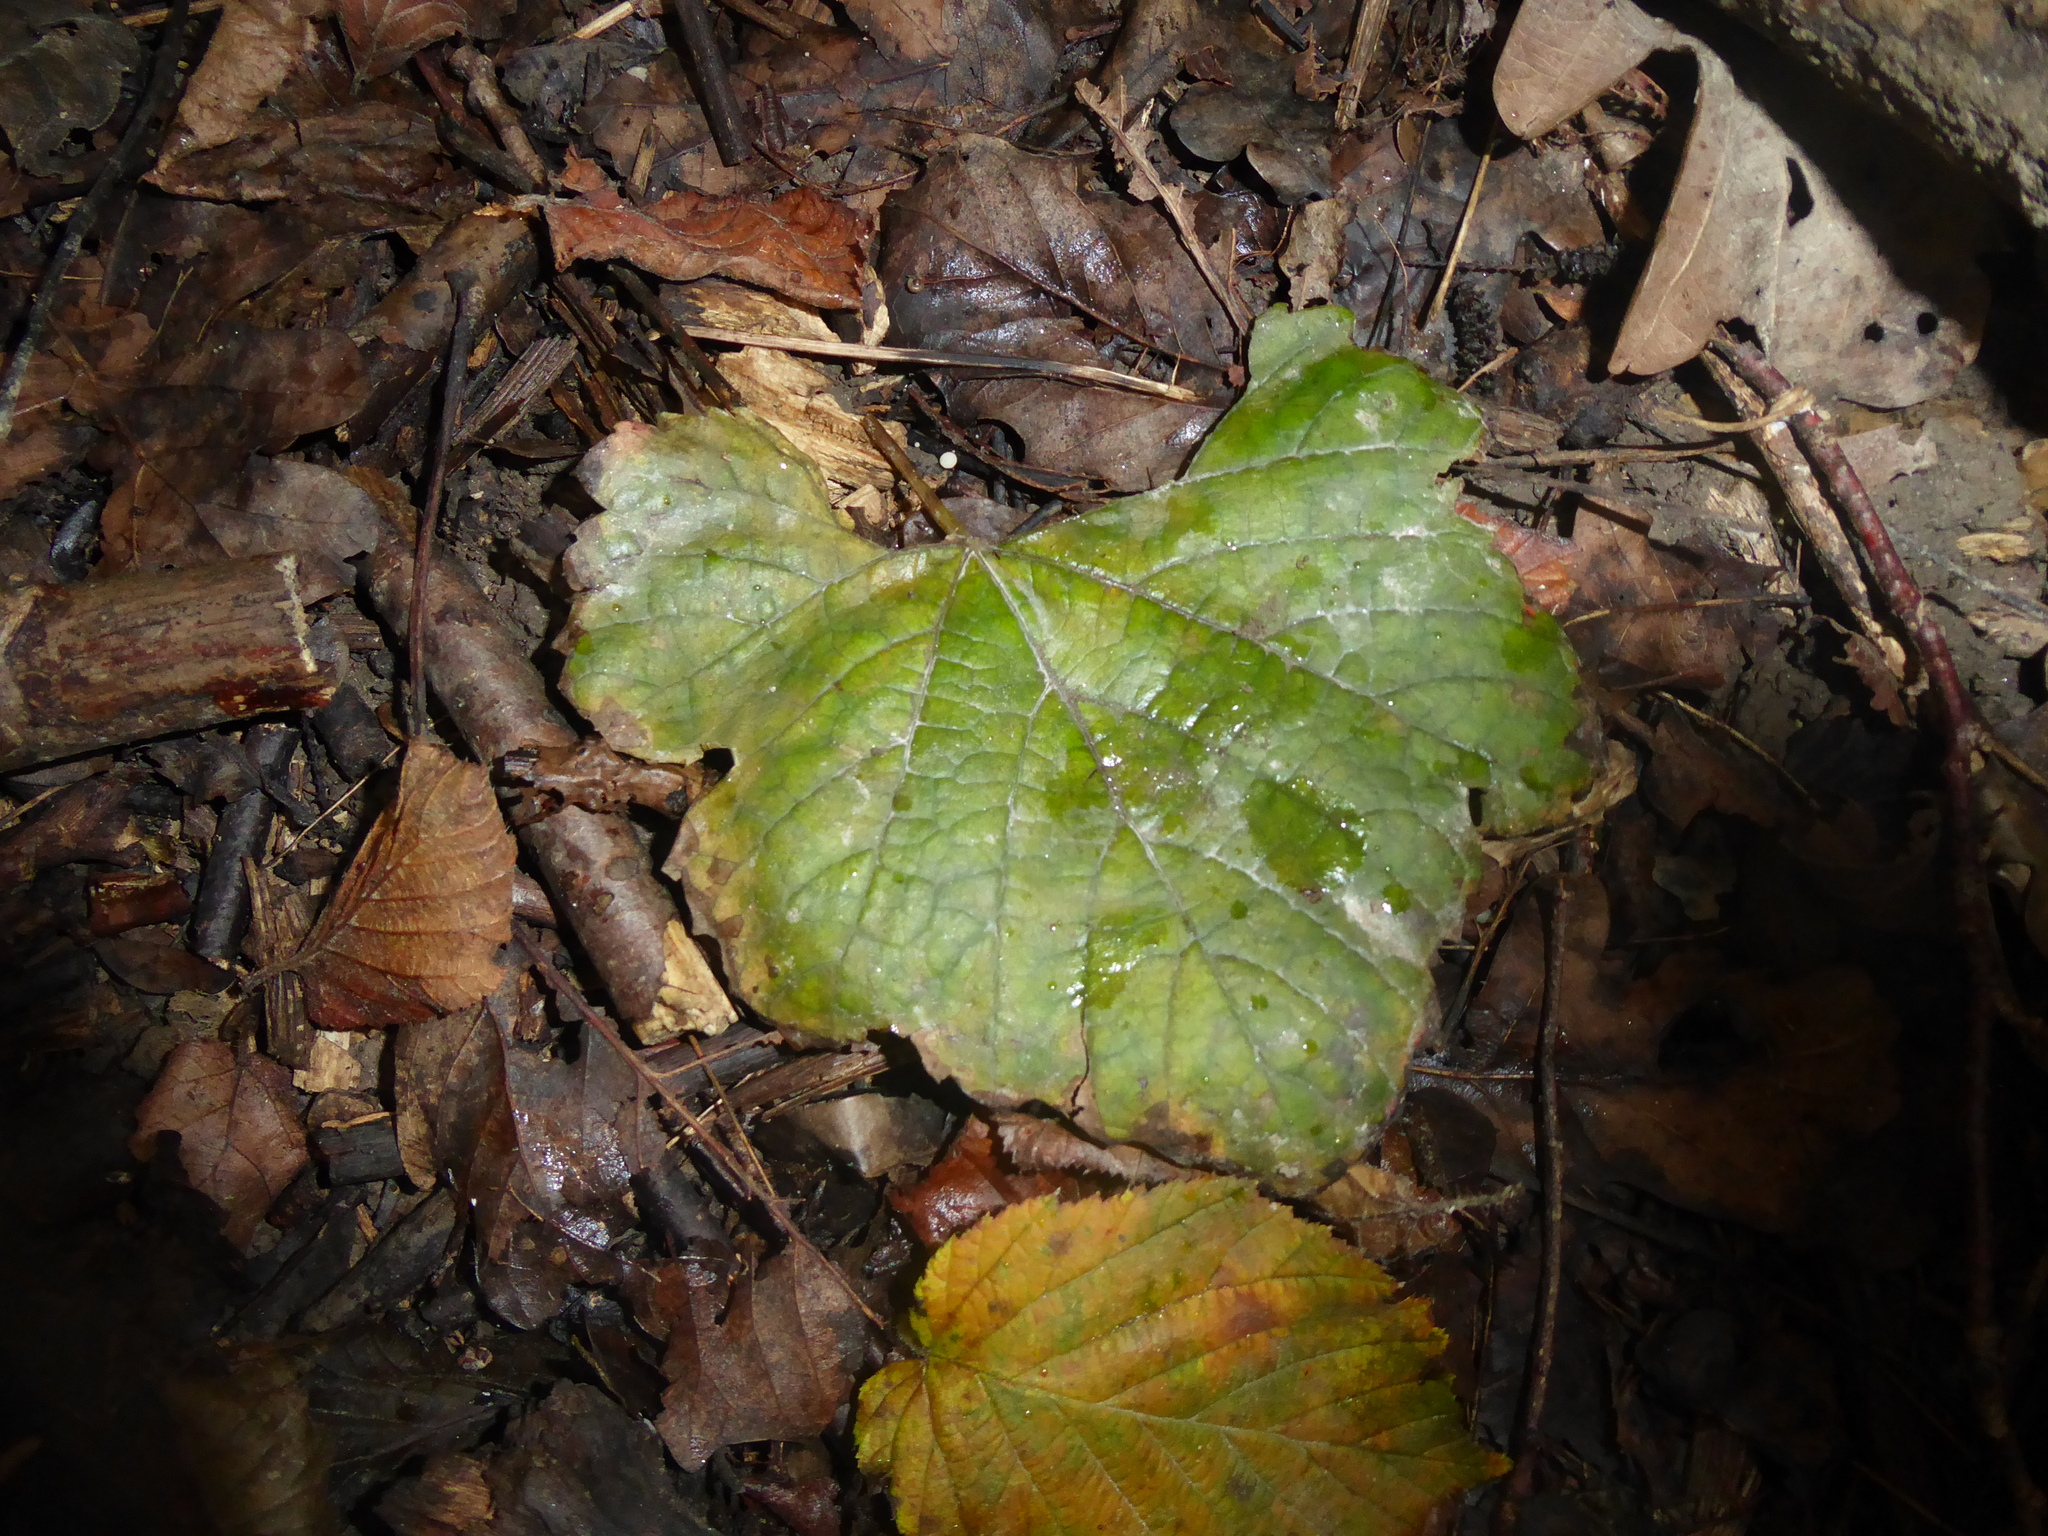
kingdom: Plantae
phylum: Tracheophyta
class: Magnoliopsida
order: Vitales
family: Vitaceae
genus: Vitis
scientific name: Vitis gmelinii
